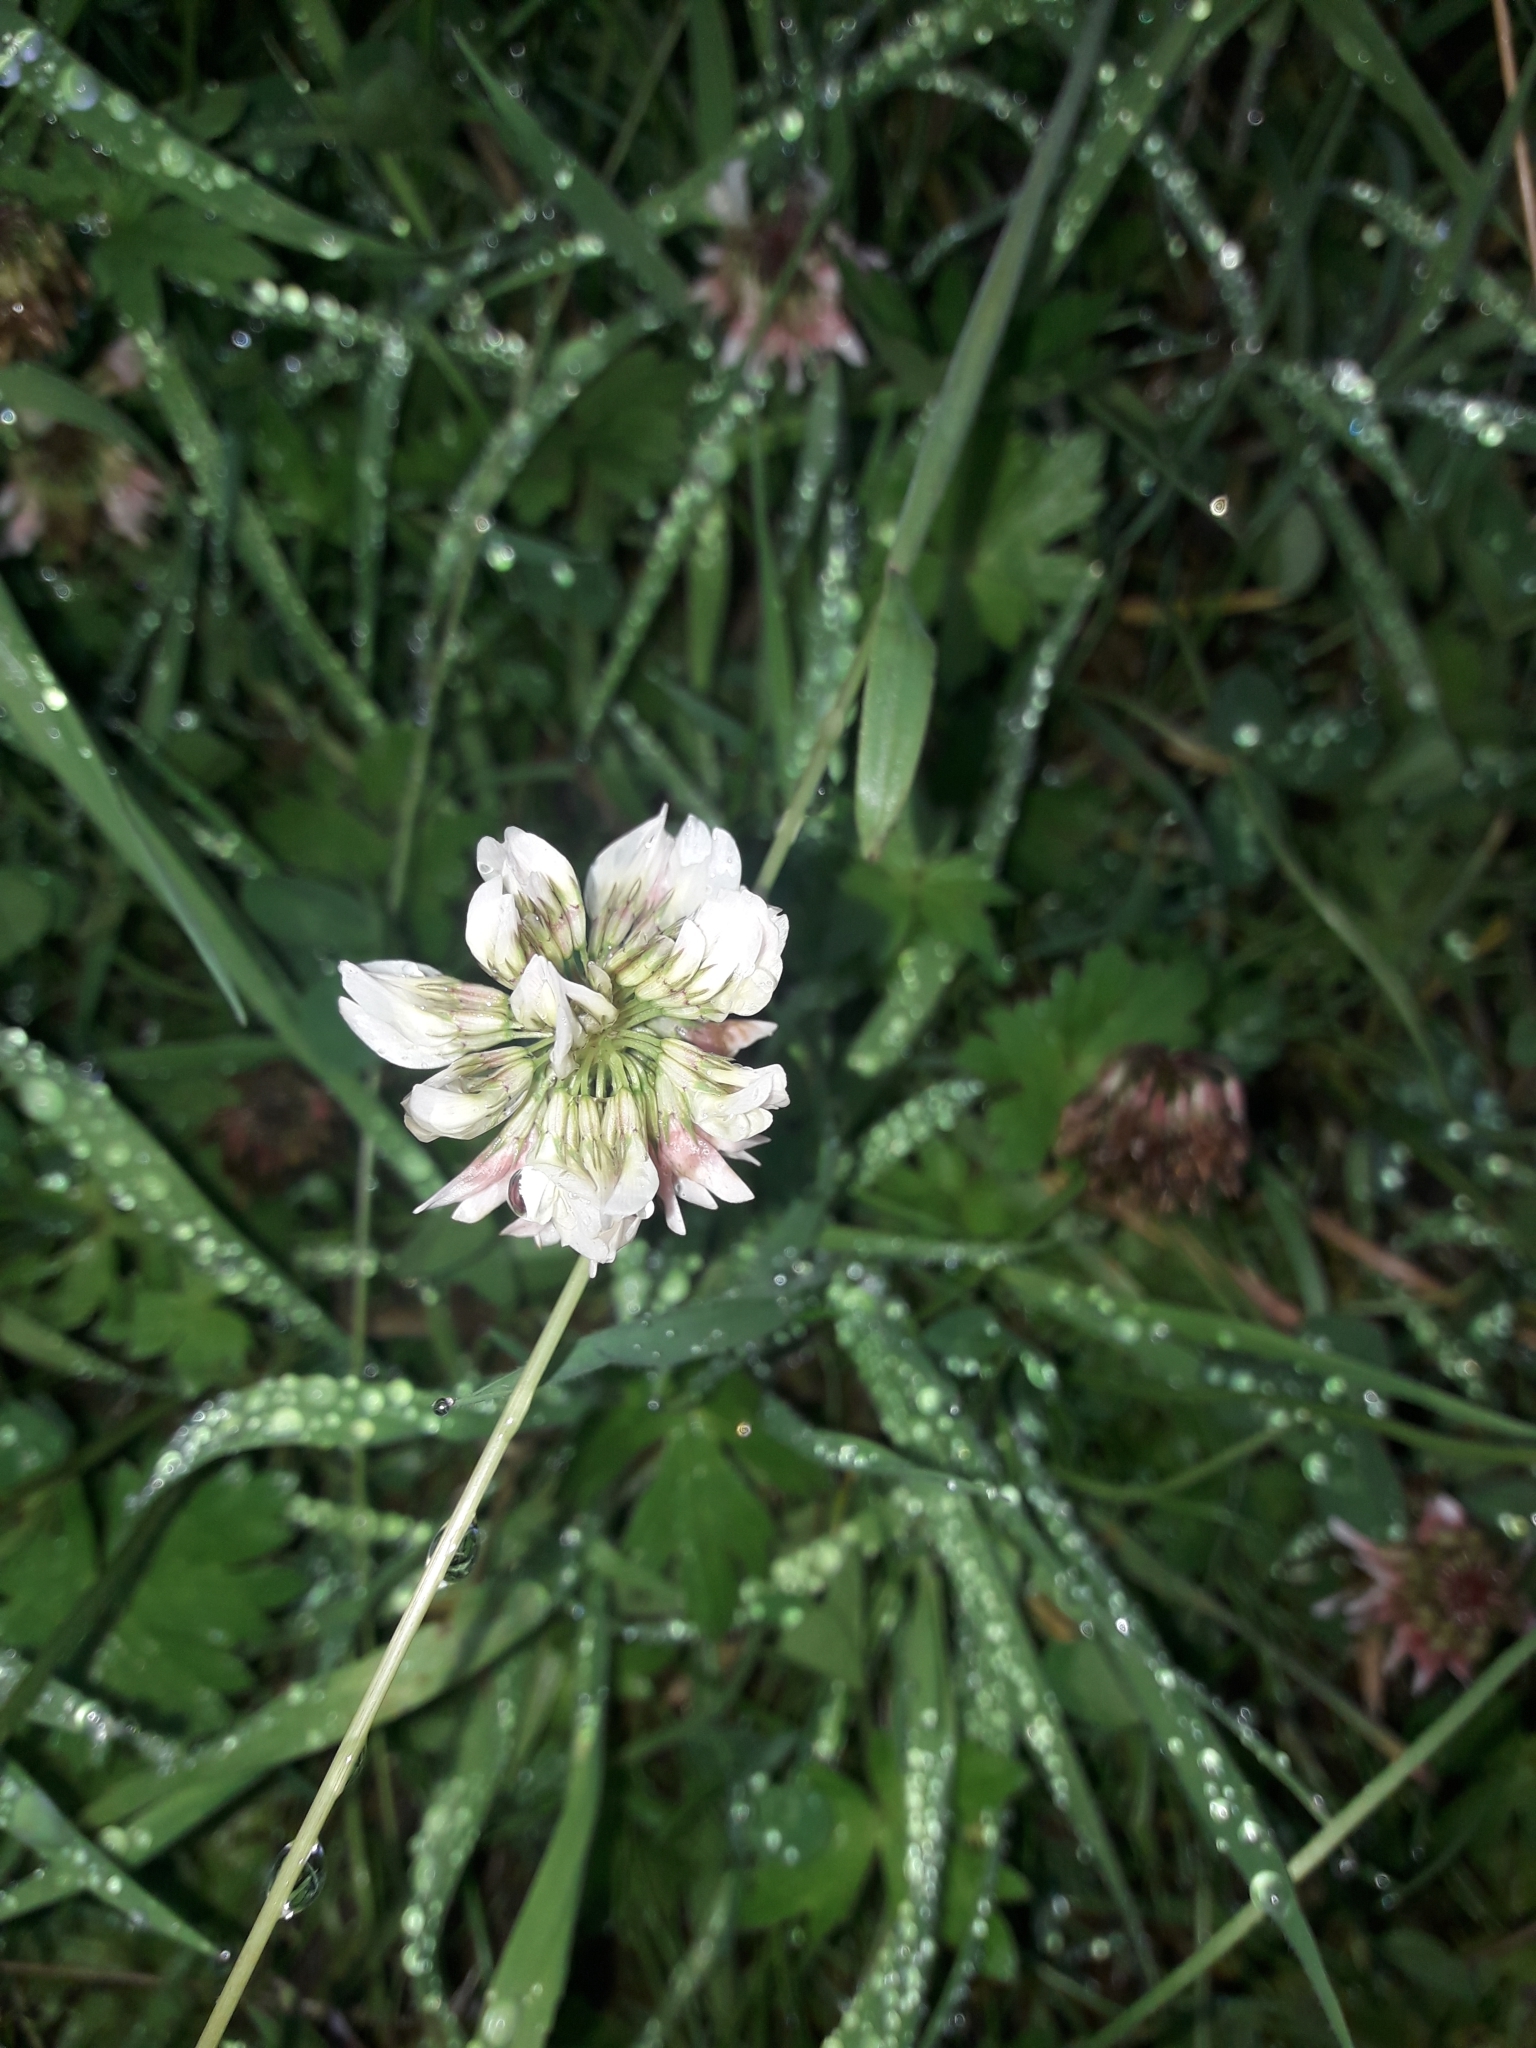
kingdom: Plantae
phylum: Tracheophyta
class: Magnoliopsida
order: Fabales
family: Fabaceae
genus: Trifolium
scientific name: Trifolium repens
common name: White clover
